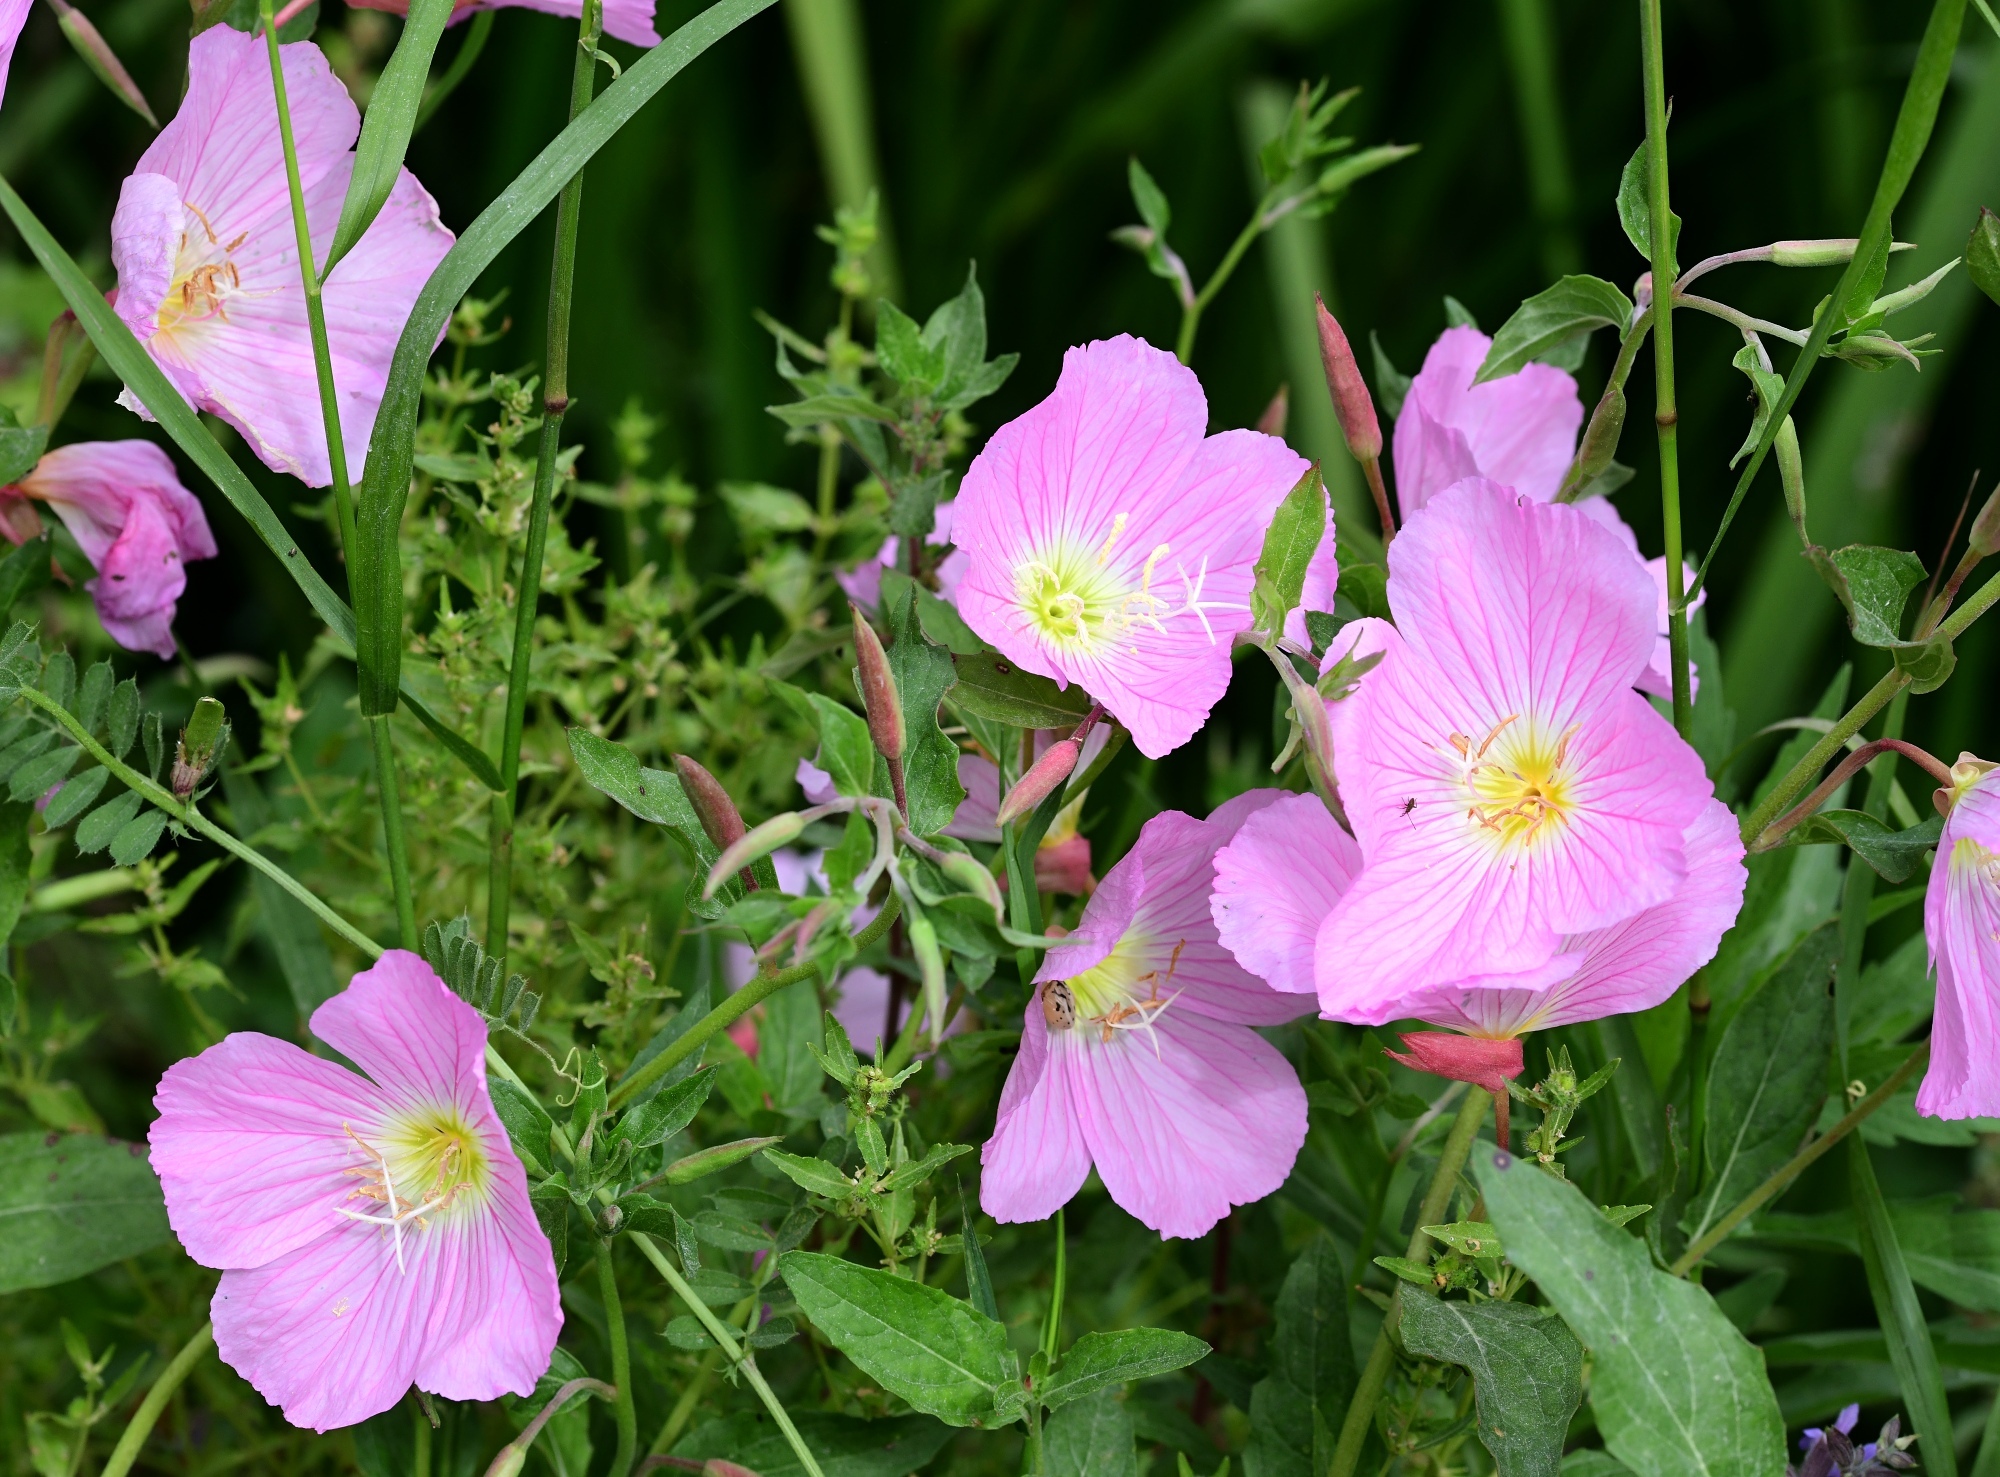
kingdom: Plantae
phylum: Tracheophyta
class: Magnoliopsida
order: Myrtales
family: Onagraceae
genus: Oenothera
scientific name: Oenothera speciosa
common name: White evening-primrose
